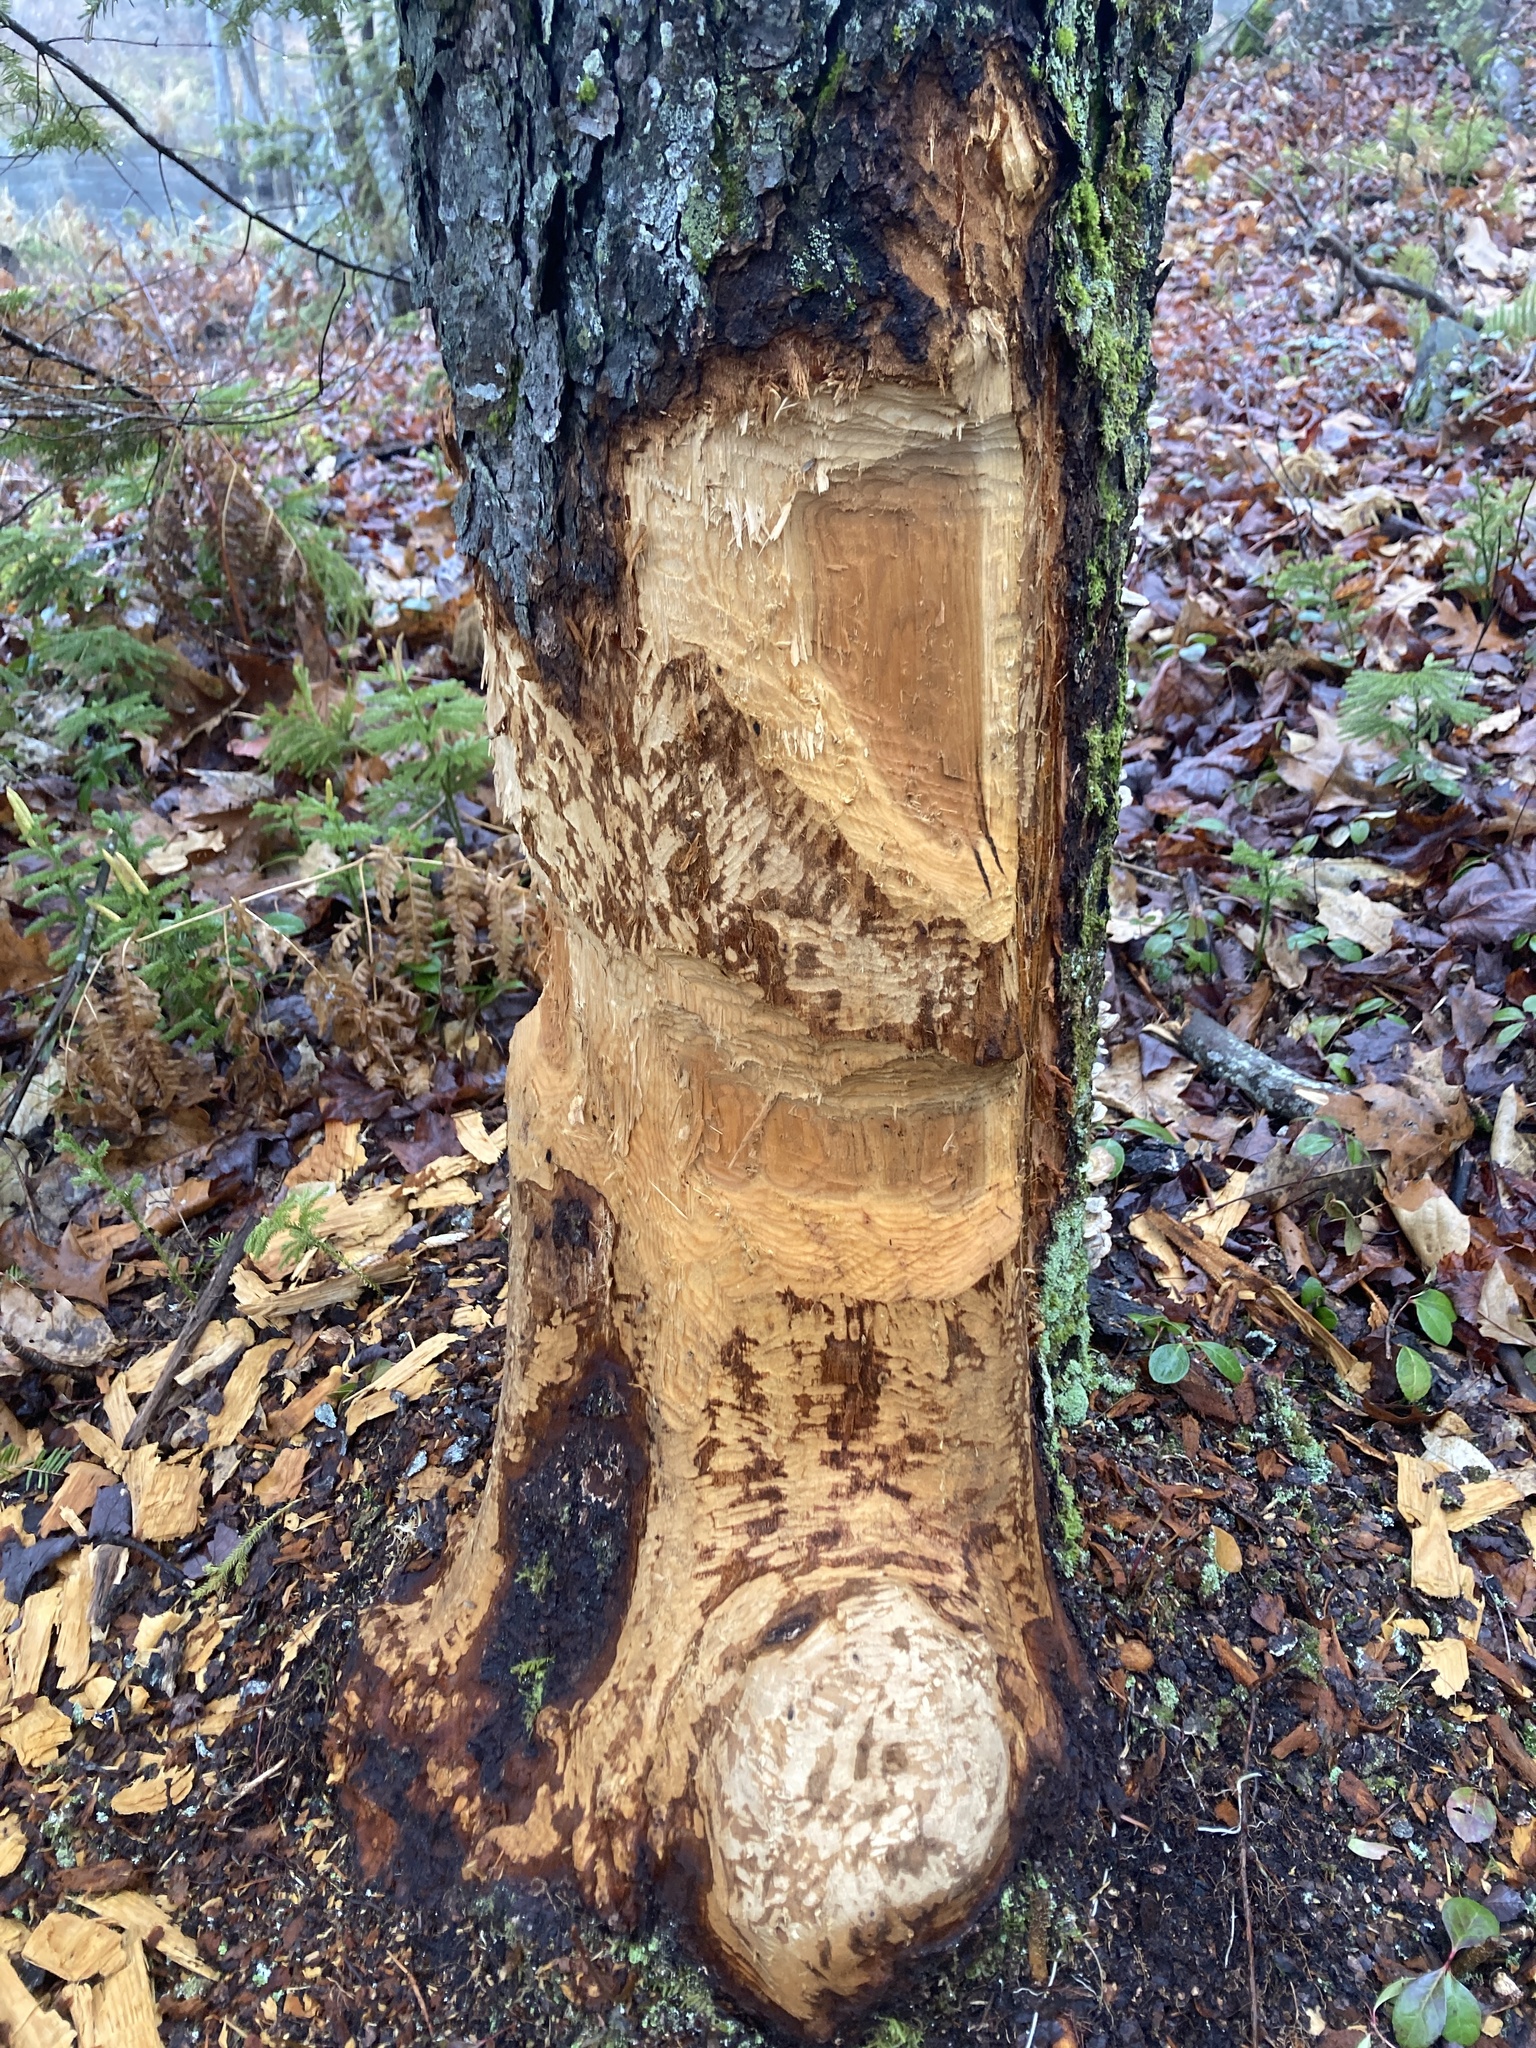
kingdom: Animalia
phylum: Chordata
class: Mammalia
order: Rodentia
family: Castoridae
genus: Castor
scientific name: Castor canadensis
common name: American beaver
